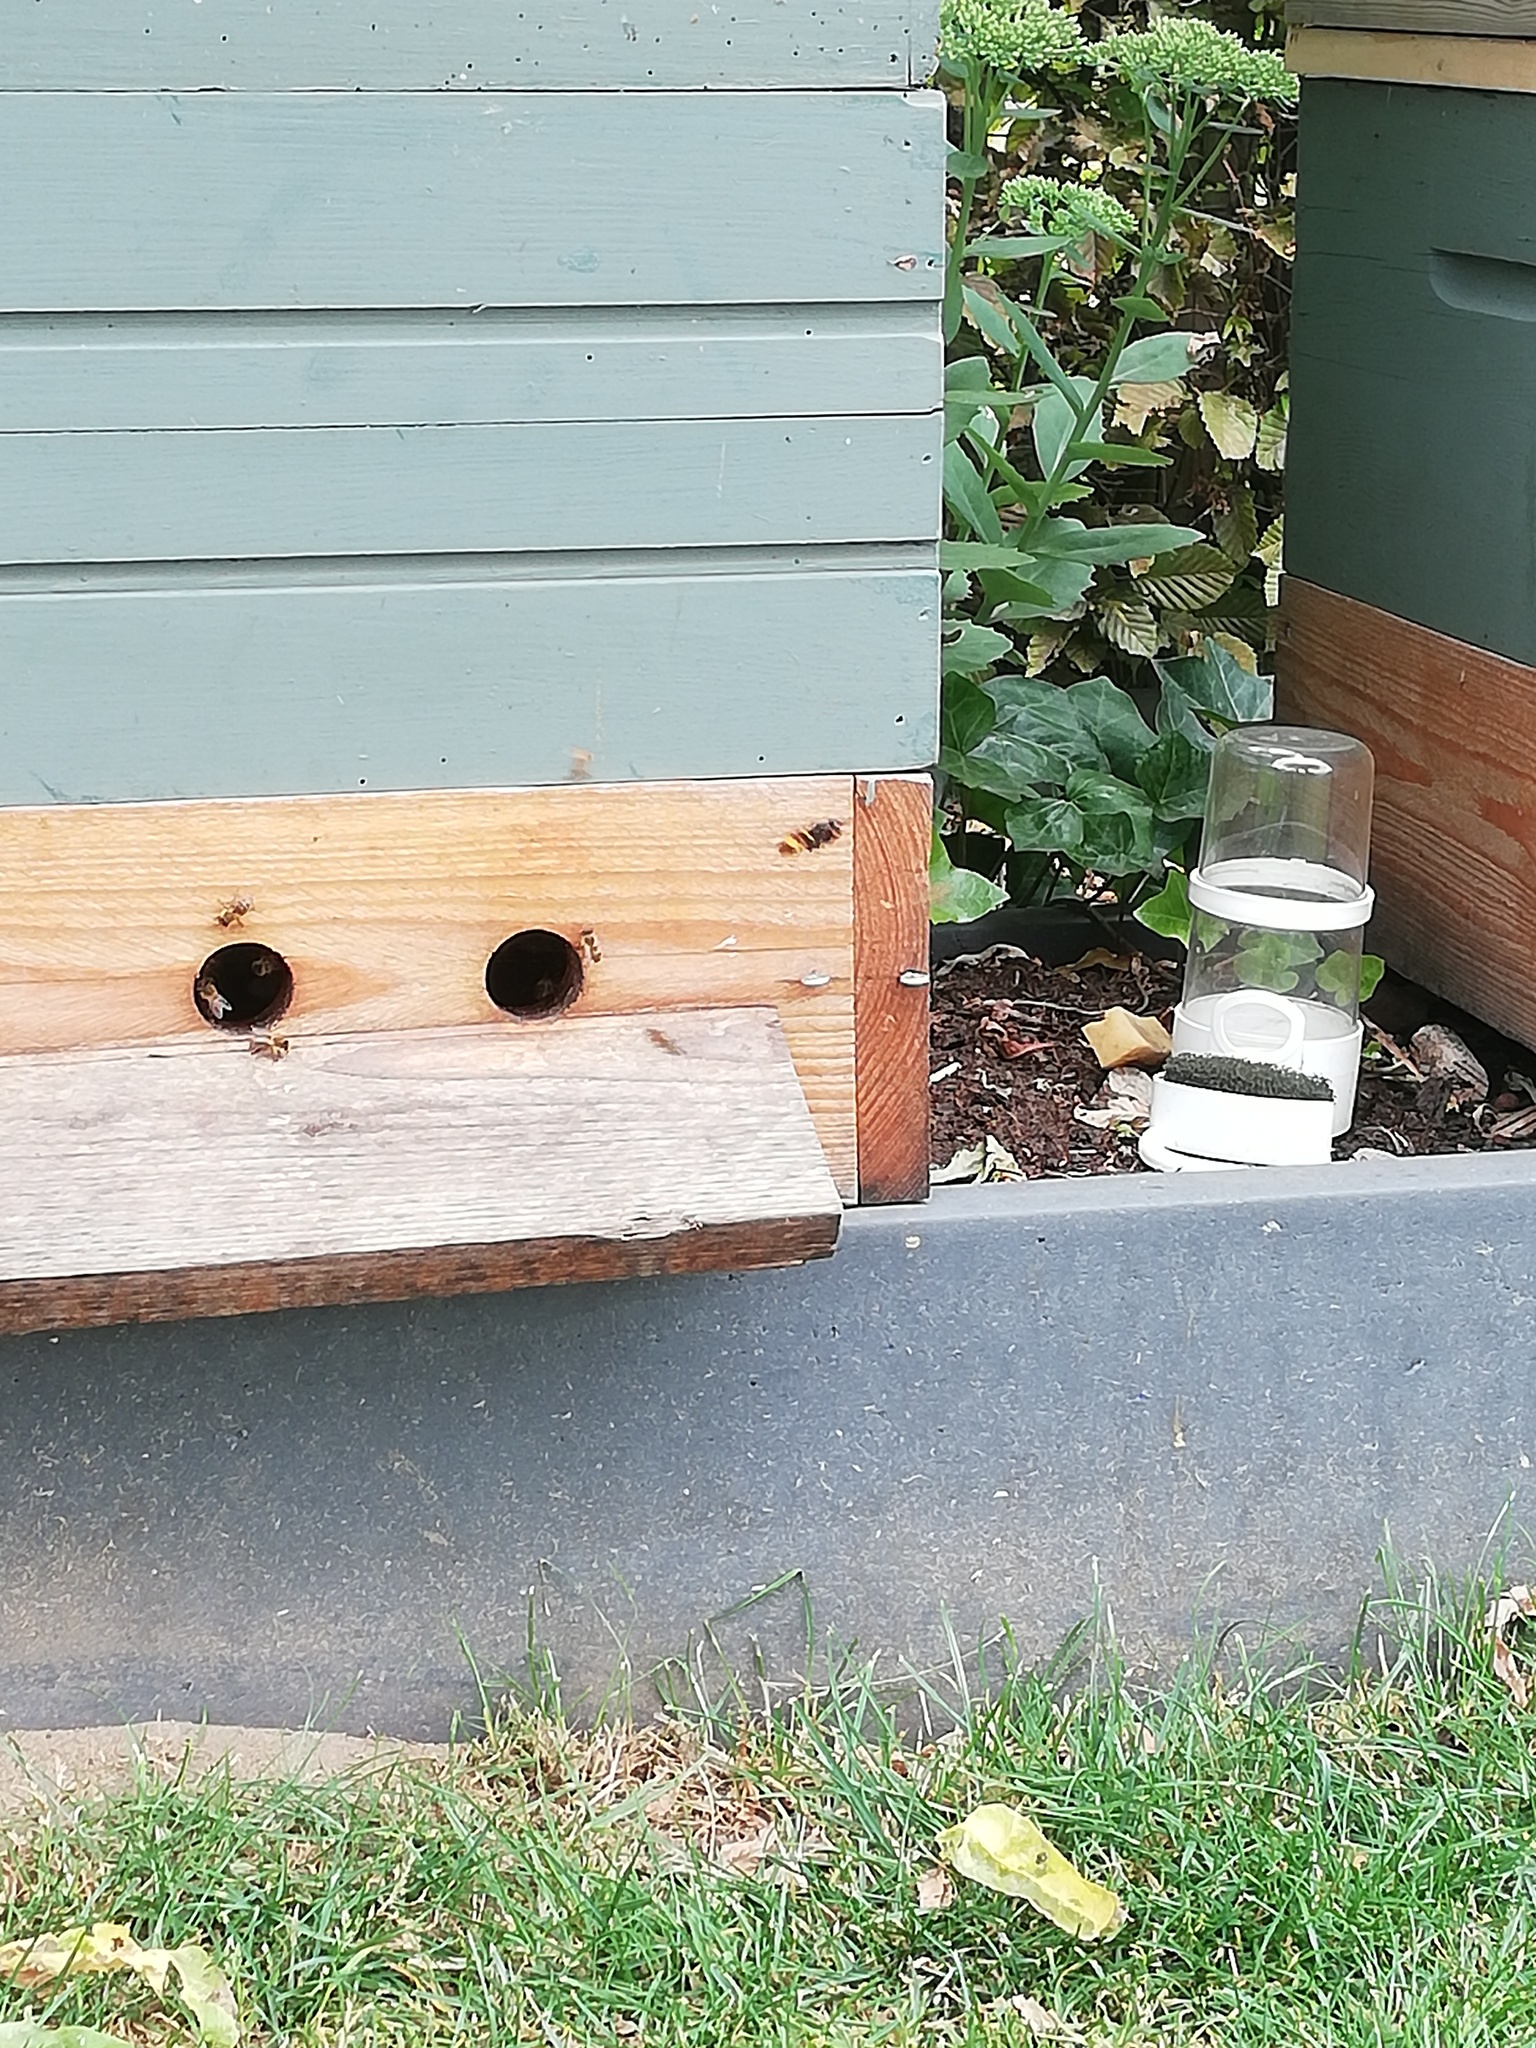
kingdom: Animalia
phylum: Arthropoda
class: Insecta
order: Hymenoptera
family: Vespidae
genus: Vespa
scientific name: Vespa velutina
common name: Asian hornet
